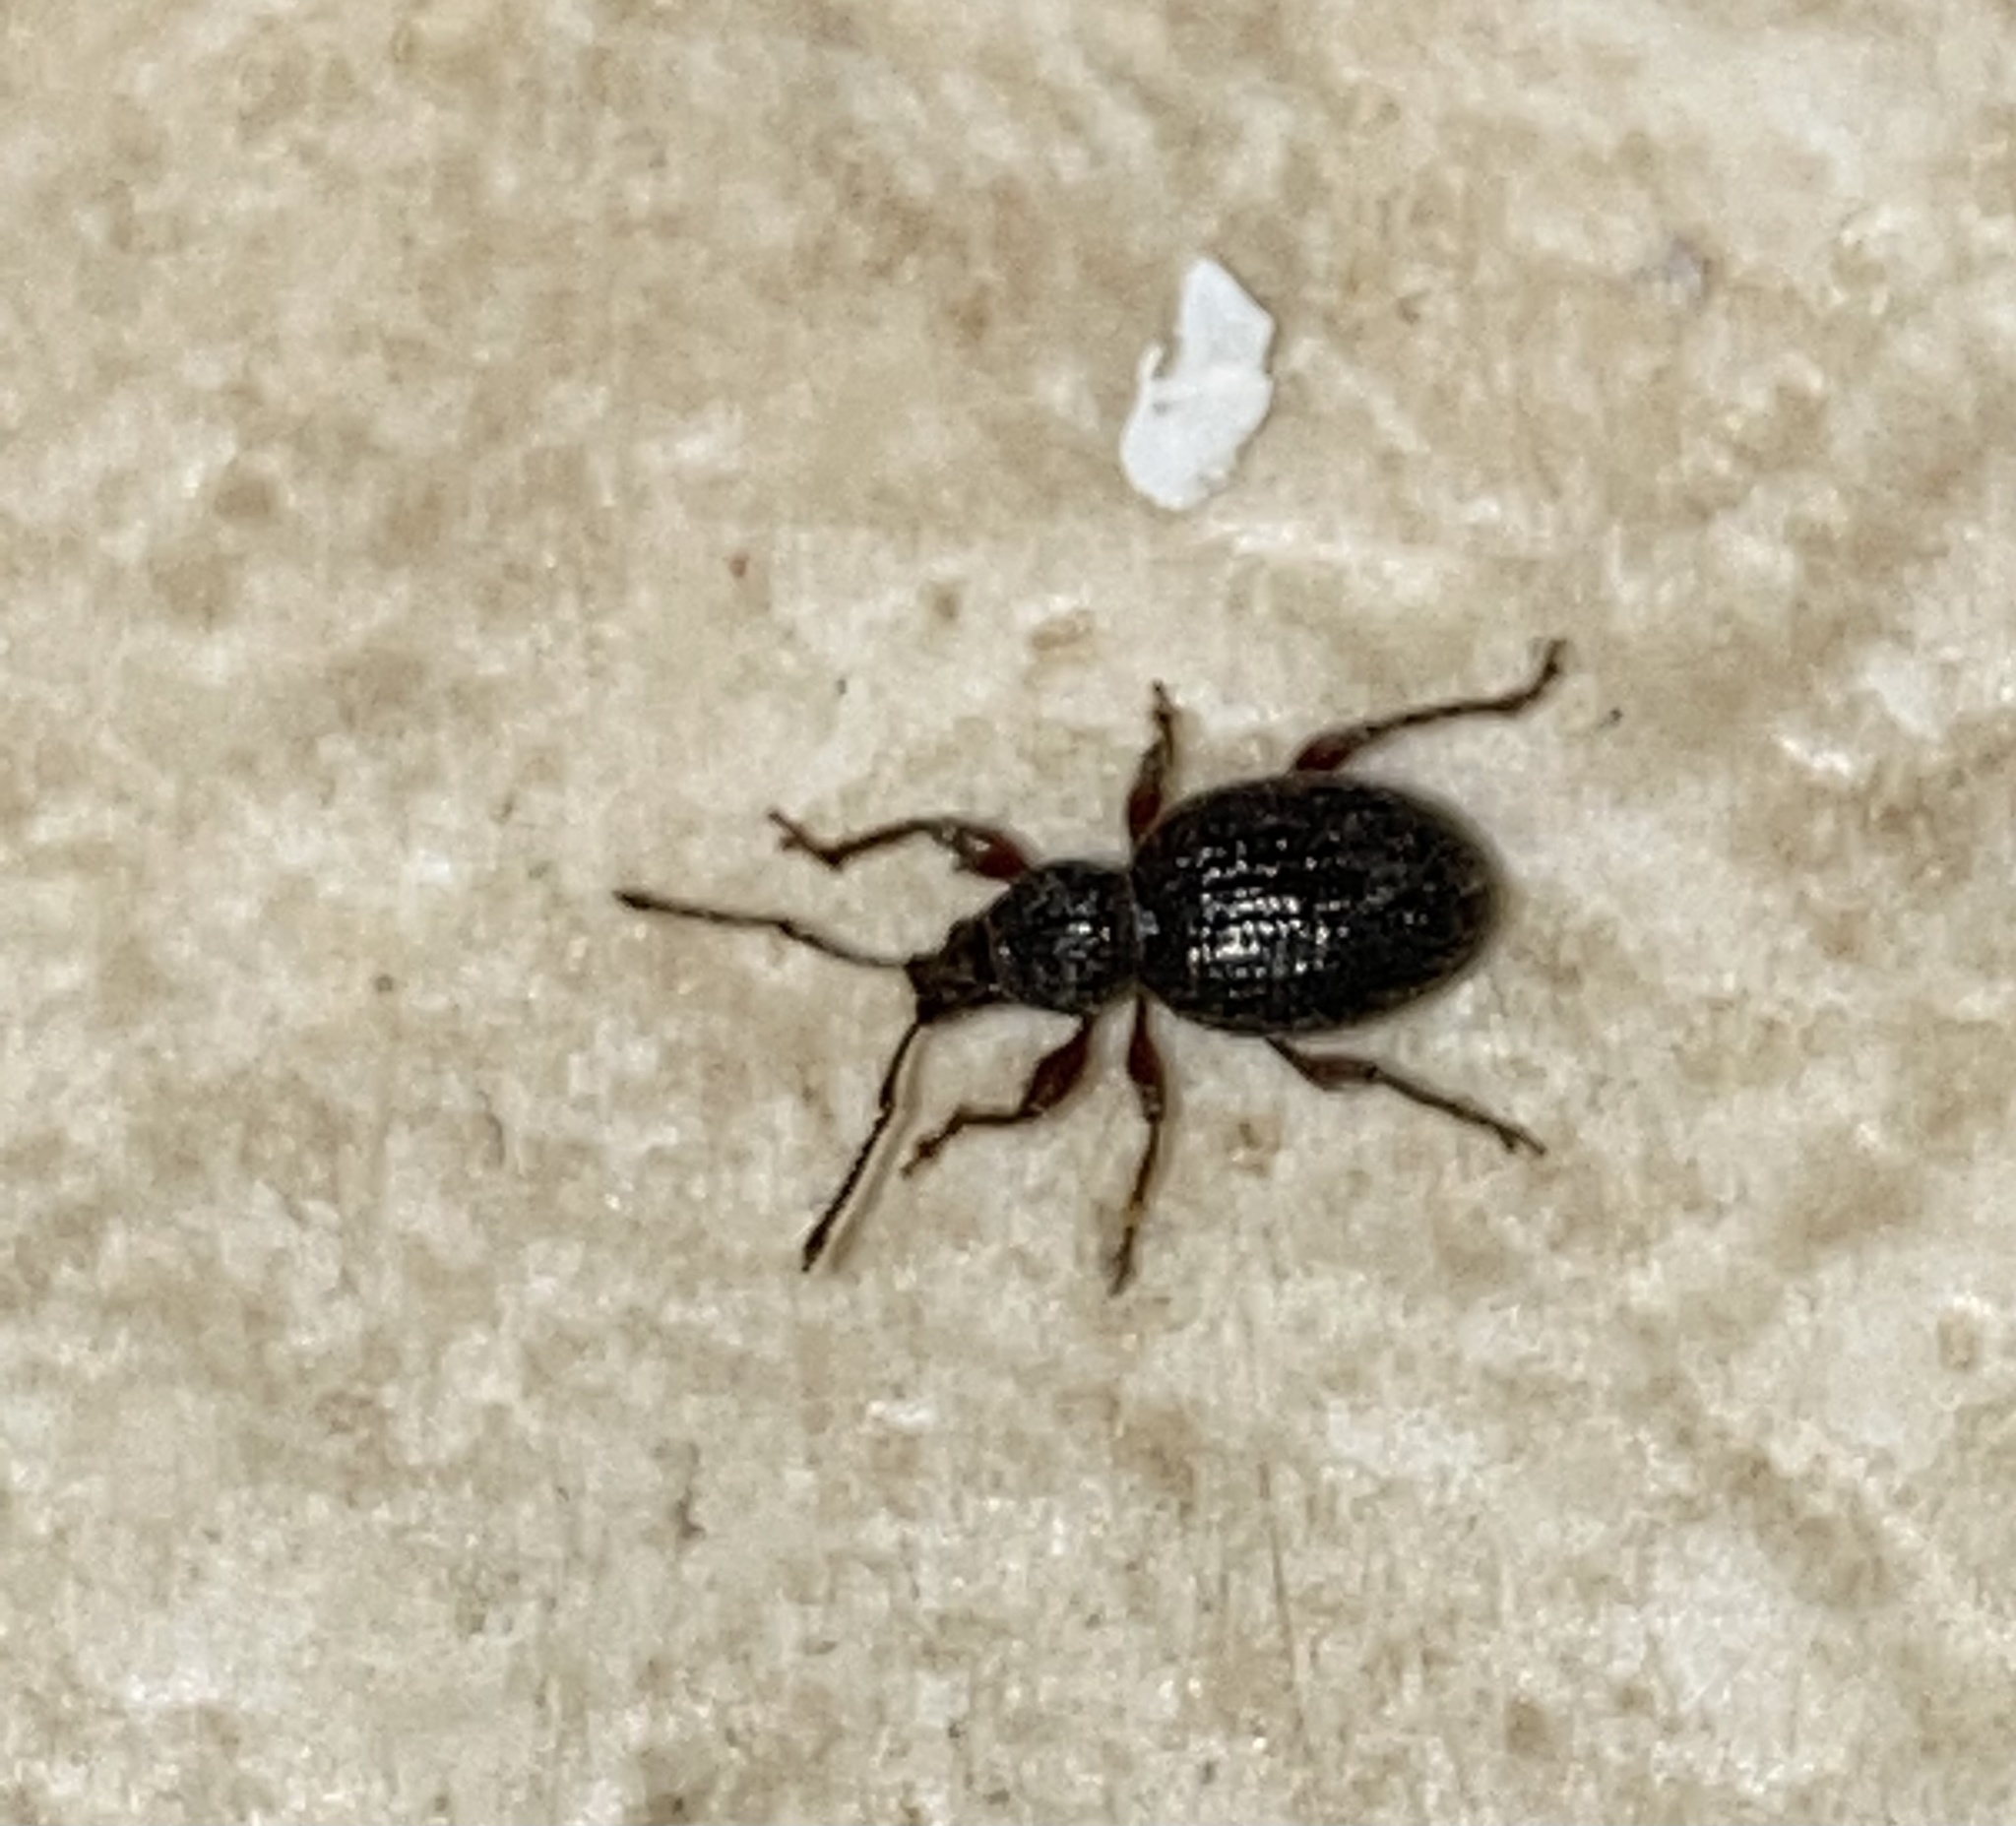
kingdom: Animalia
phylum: Arthropoda
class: Insecta
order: Coleoptera
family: Curculionidae
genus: Otiorhynchus
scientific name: Otiorhynchus ovatus
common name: Strawberry root weevil
